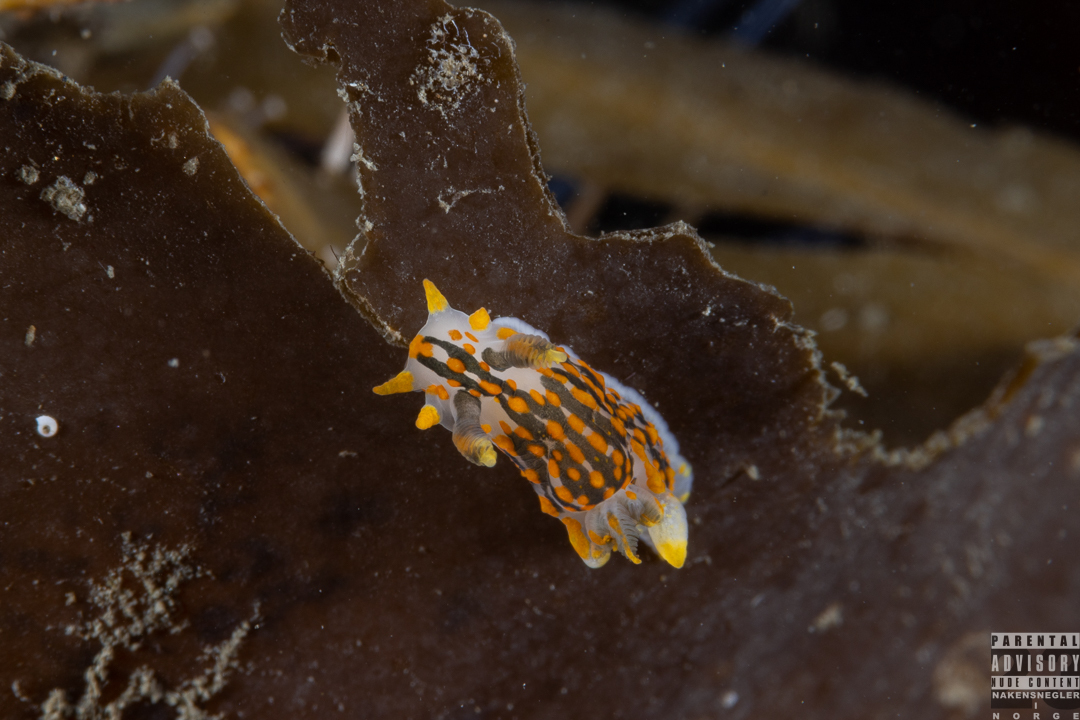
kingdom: Animalia
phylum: Mollusca
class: Gastropoda
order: Nudibranchia
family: Polyceridae
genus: Polycera
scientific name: Polycera quadrilineata
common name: Four-striped polycera
